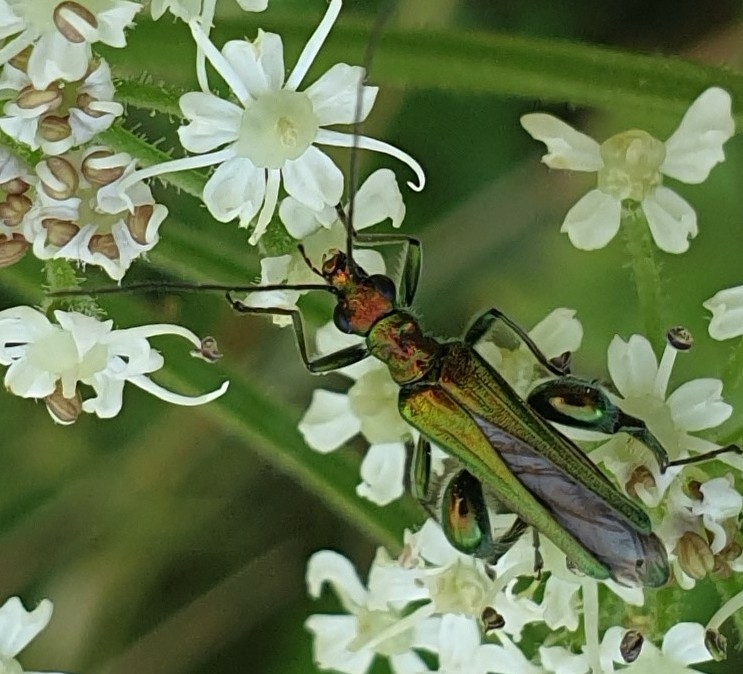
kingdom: Animalia
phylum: Arthropoda
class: Insecta
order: Coleoptera
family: Oedemeridae
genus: Oedemera
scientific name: Oedemera nobilis
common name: Swollen-thighed beetle
